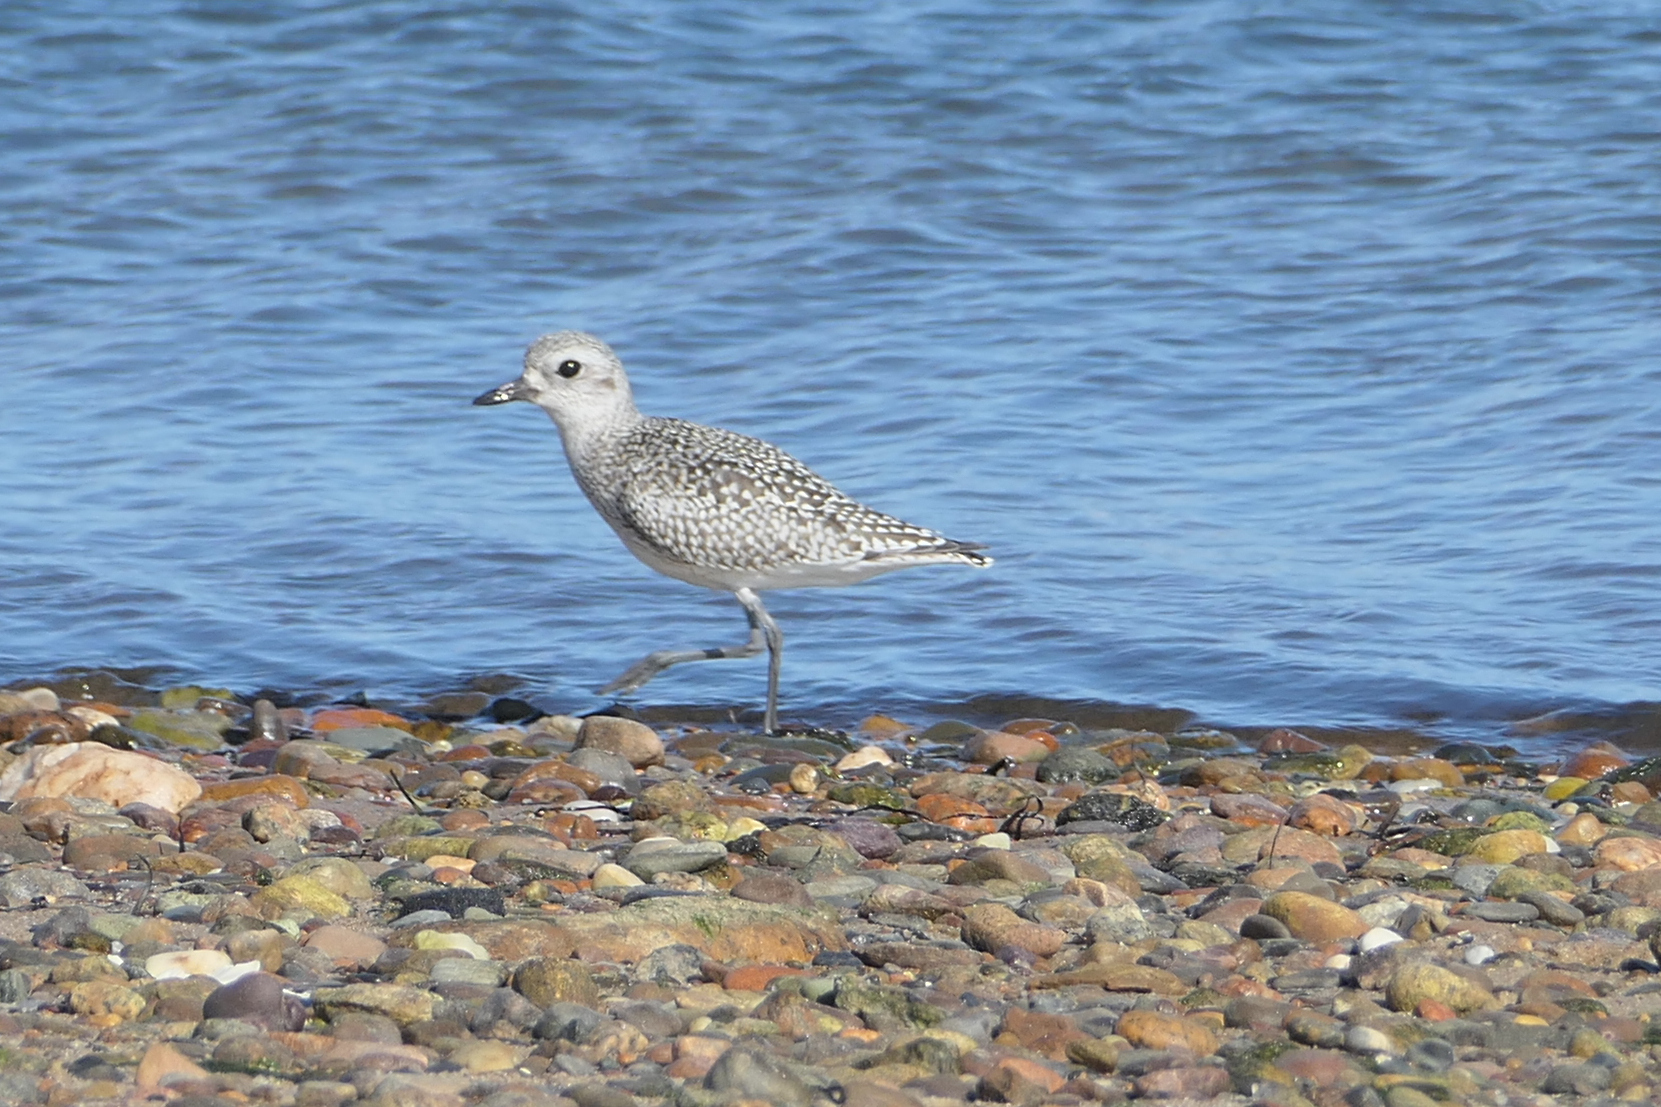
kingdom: Animalia
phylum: Chordata
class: Aves
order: Charadriiformes
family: Charadriidae
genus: Pluvialis
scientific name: Pluvialis squatarola
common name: Grey plover
